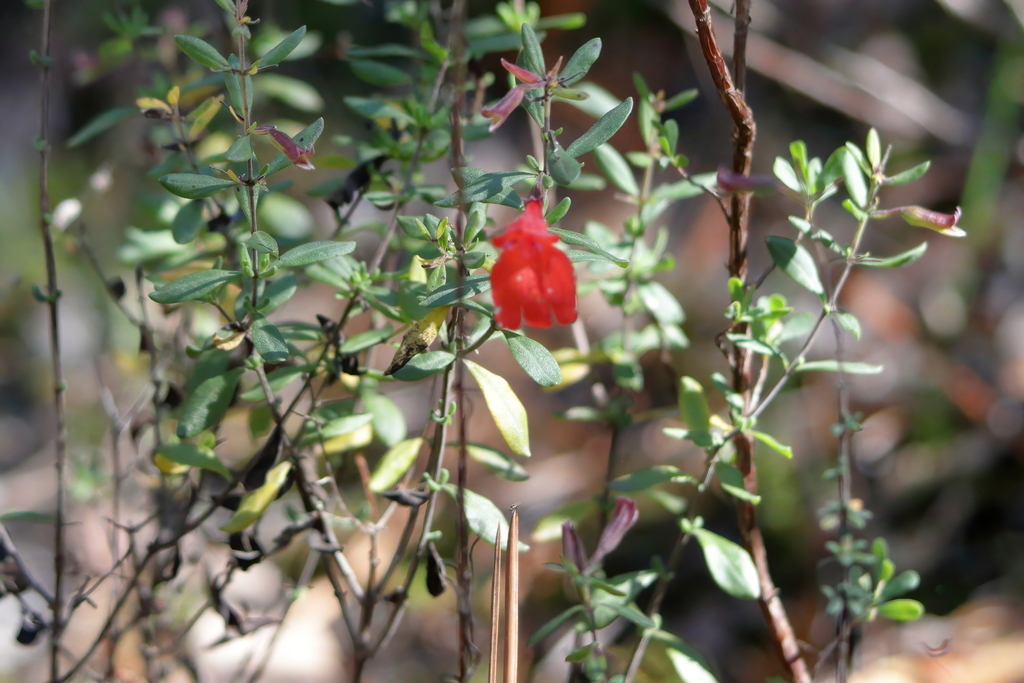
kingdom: Plantae
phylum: Tracheophyta
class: Magnoliopsida
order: Lamiales
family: Lamiaceae
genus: Clinopodium
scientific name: Clinopodium coccineum
